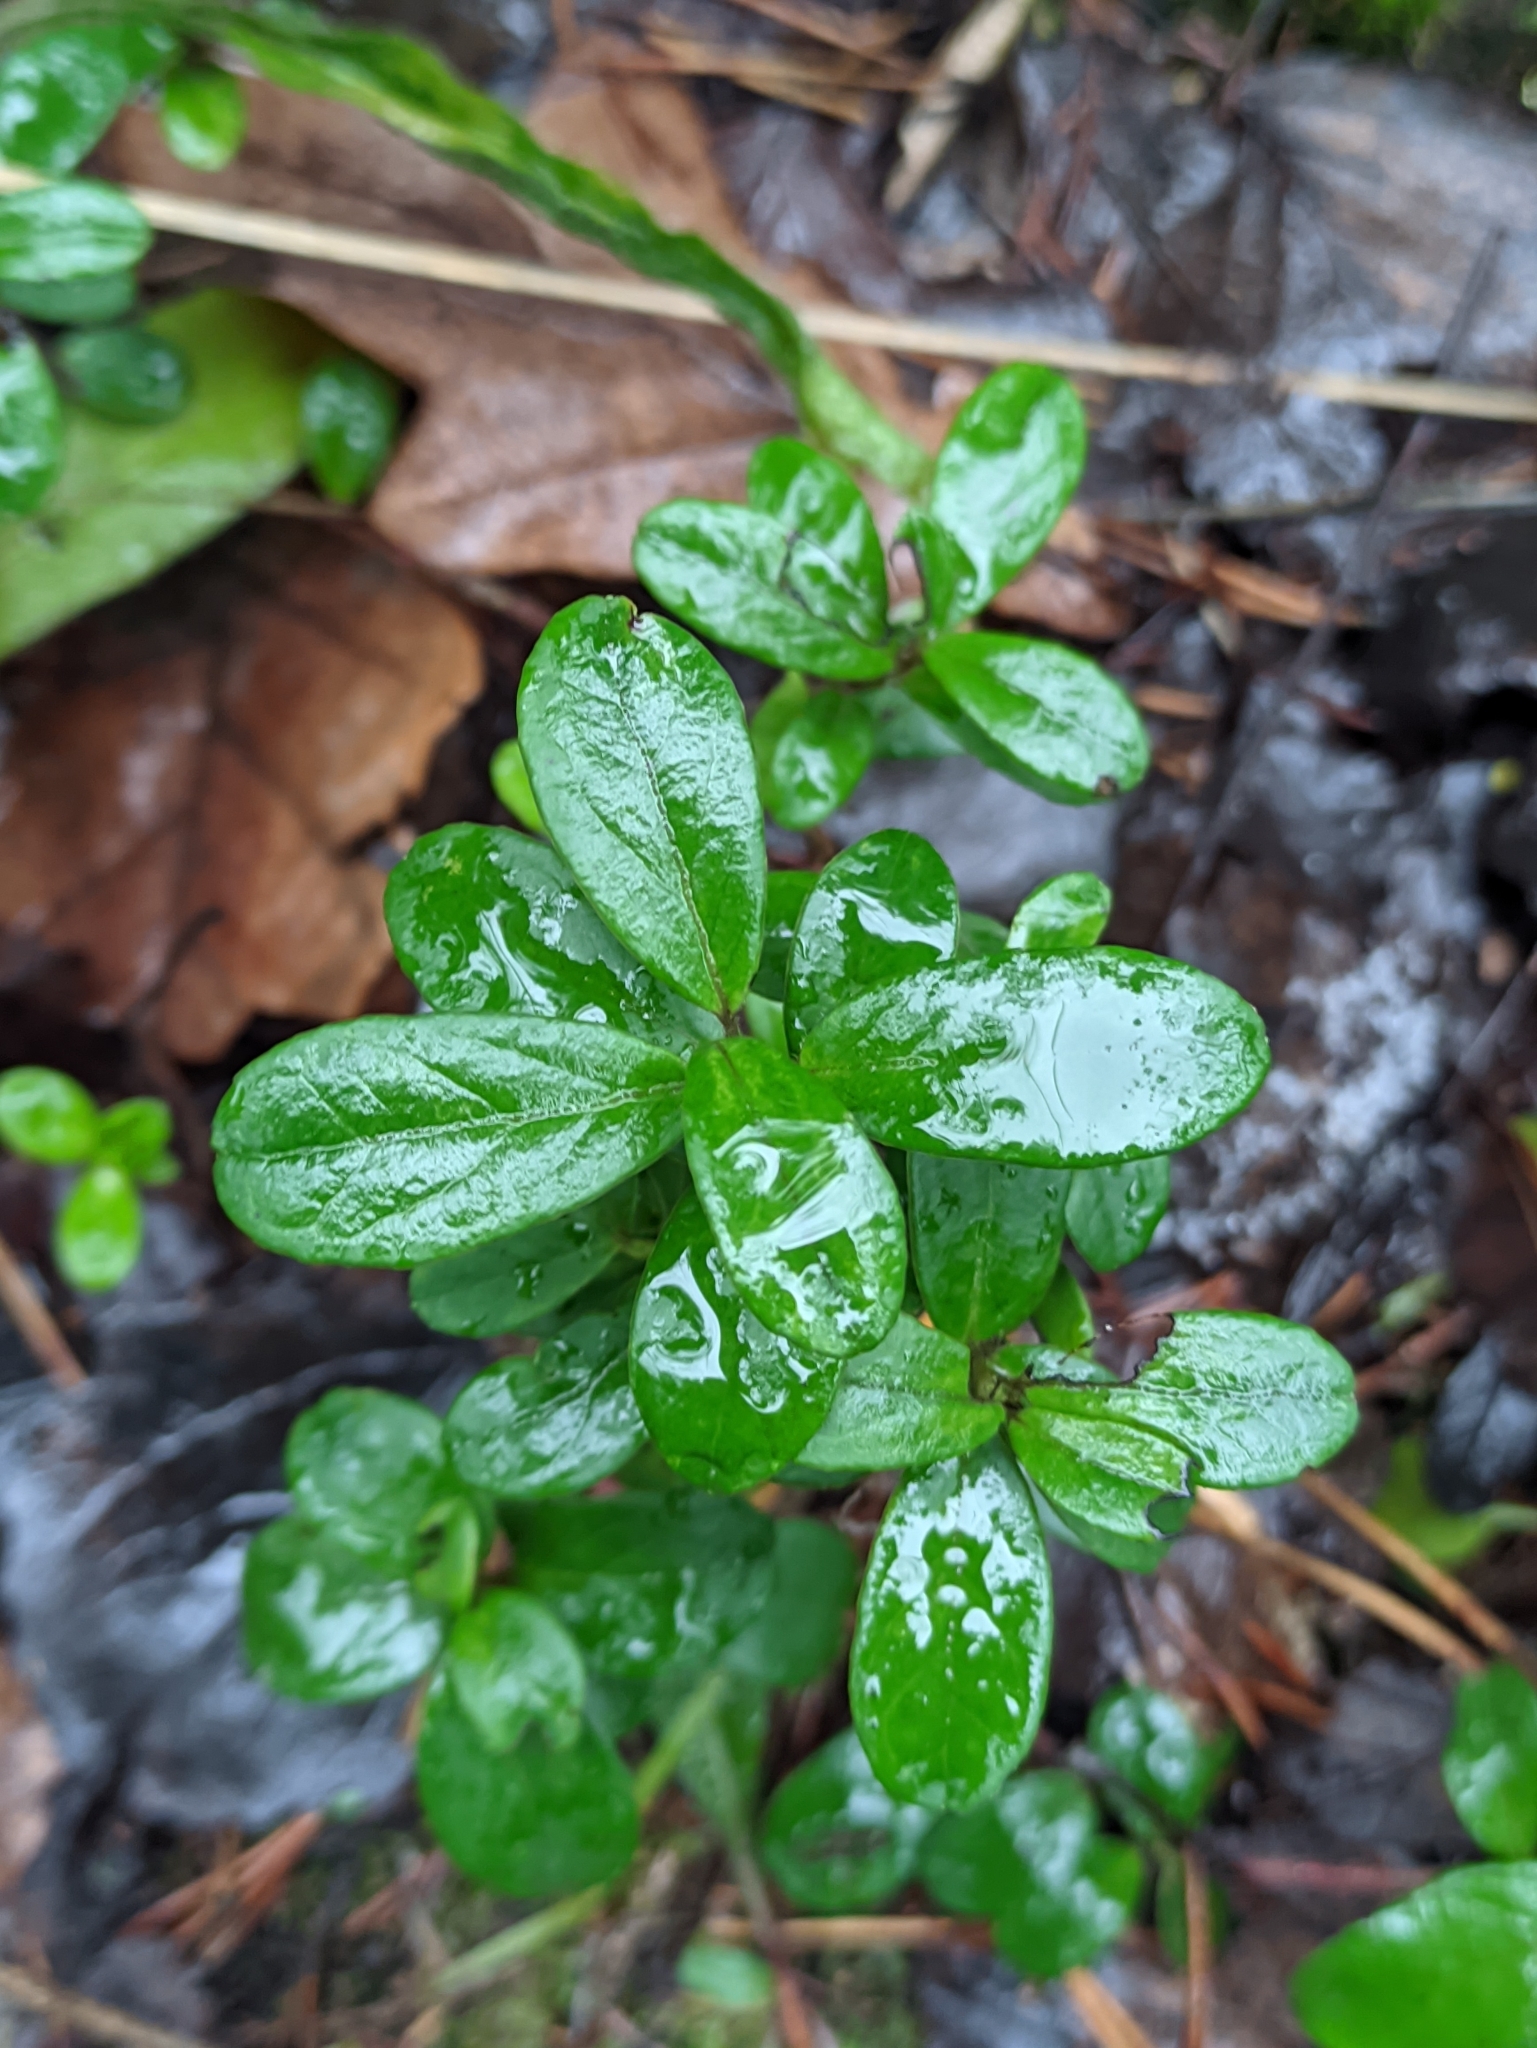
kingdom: Plantae
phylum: Tracheophyta
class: Magnoliopsida
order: Ericales
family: Ericaceae
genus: Vaccinium
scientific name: Vaccinium vitis-idaea
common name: Cowberry
